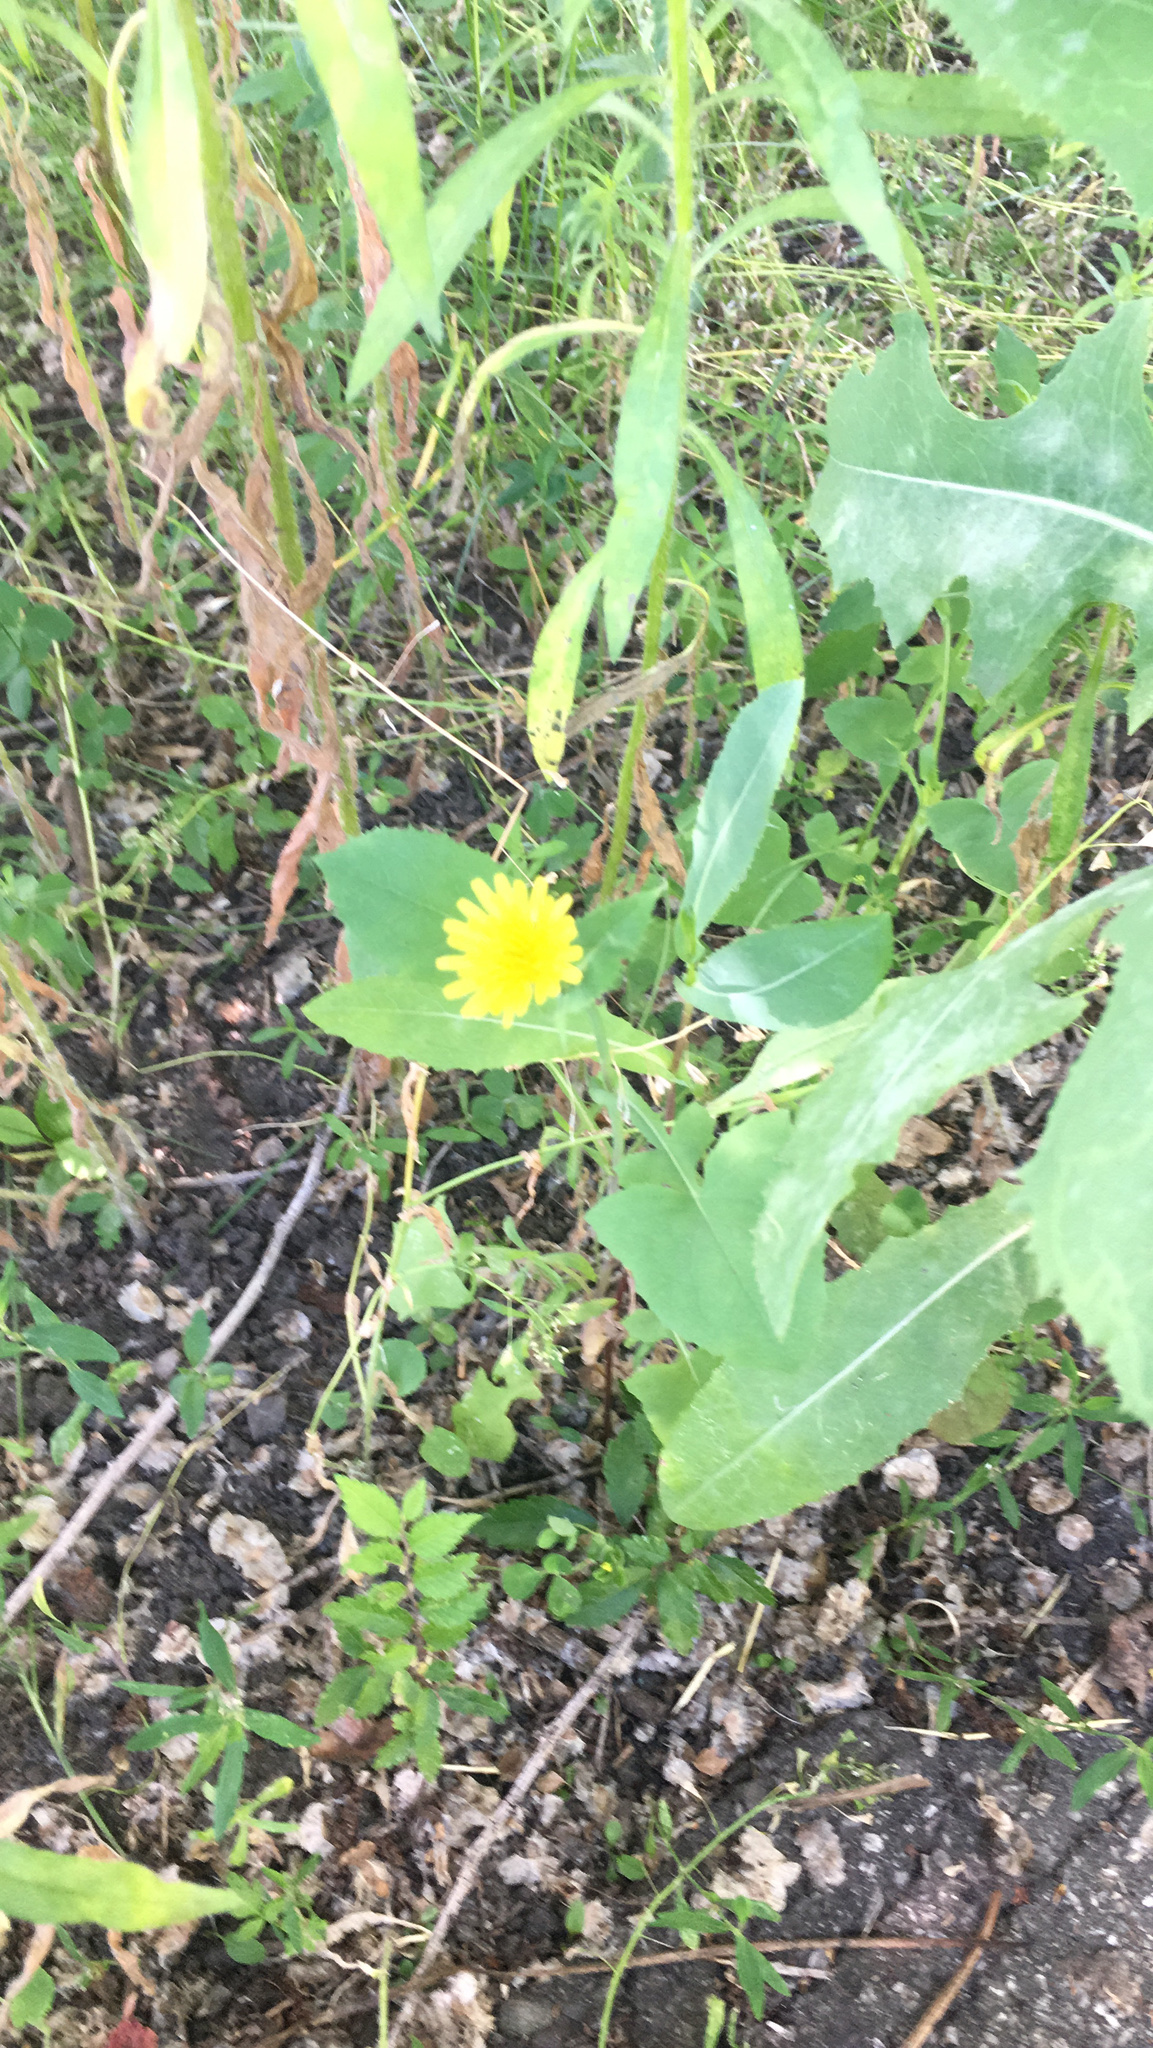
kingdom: Plantae
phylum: Tracheophyta
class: Magnoliopsida
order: Asterales
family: Asteraceae
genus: Sonchus
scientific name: Sonchus oleraceus
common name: Common sowthistle
